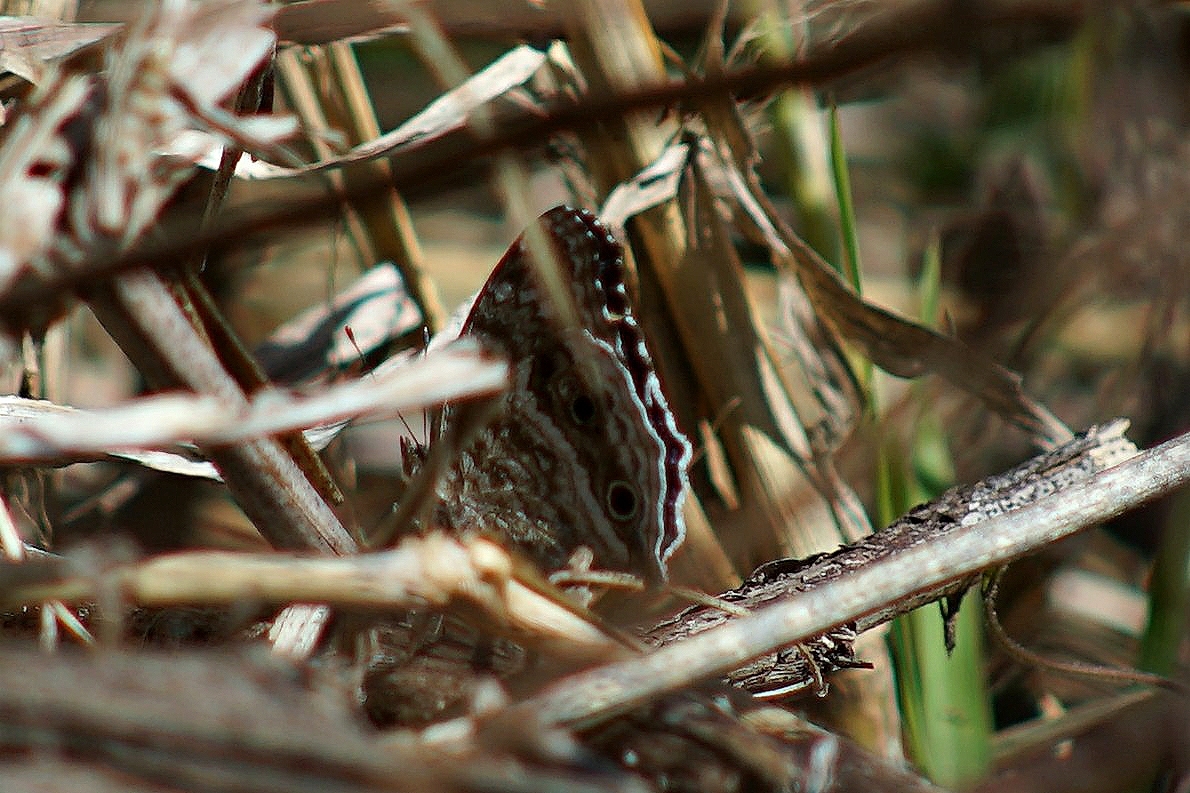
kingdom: Animalia
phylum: Arthropoda
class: Insecta
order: Lepidoptera
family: Nymphalidae
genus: Junonia
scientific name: Junonia rhadama
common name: Royal blue pansy
